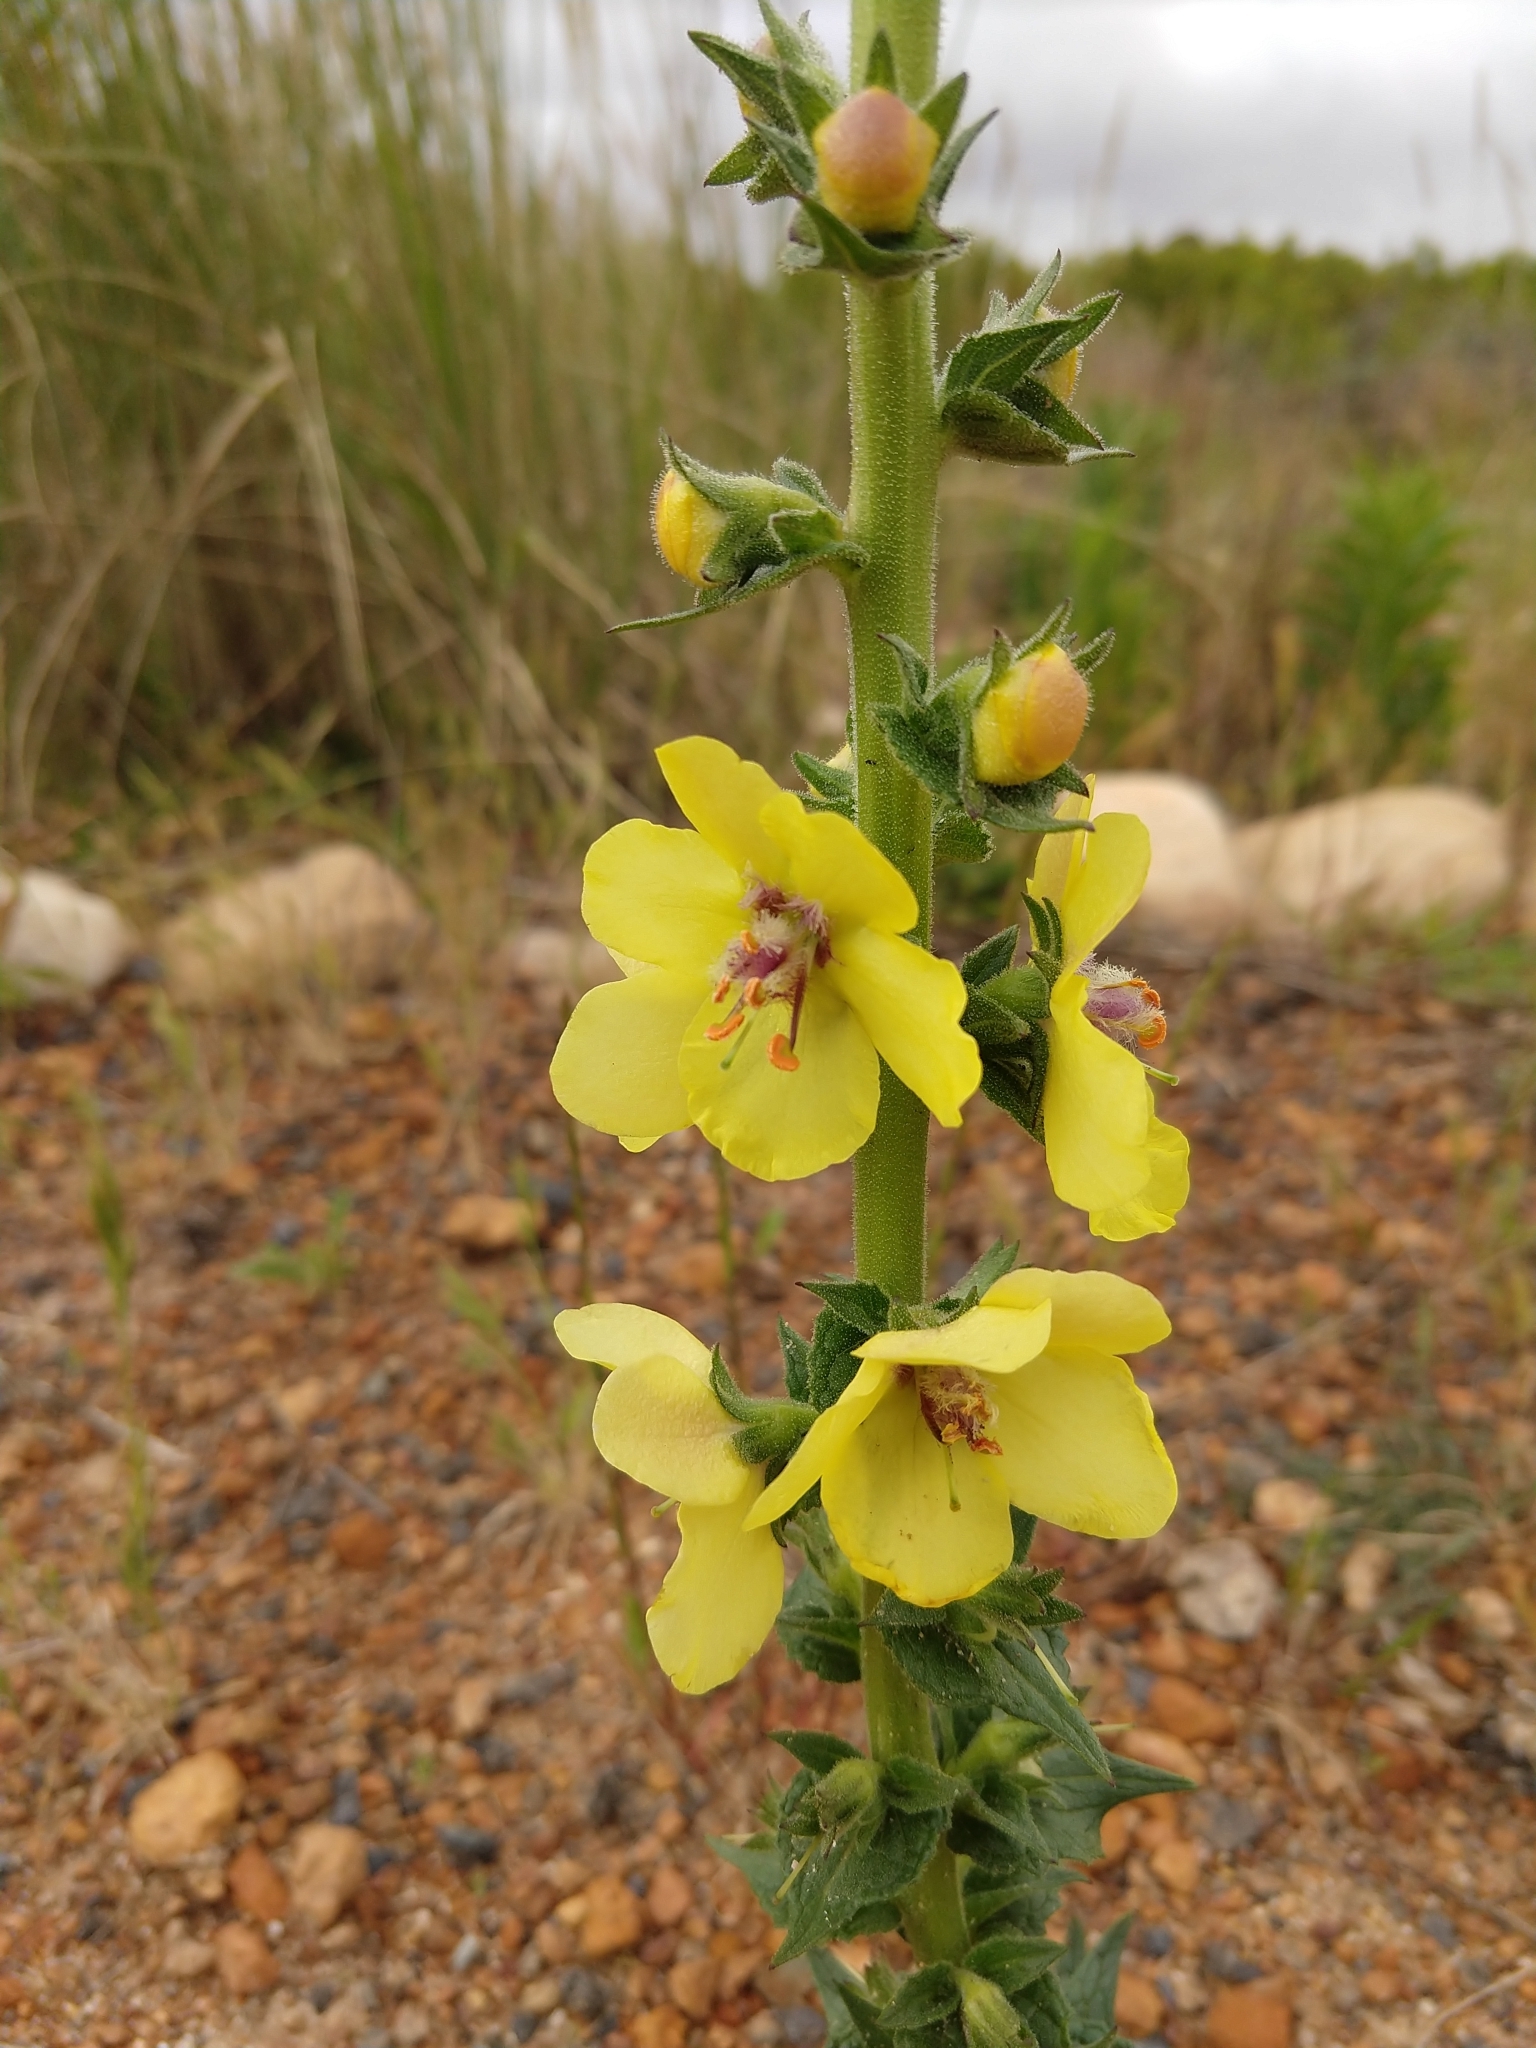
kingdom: Plantae
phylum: Tracheophyta
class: Magnoliopsida
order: Lamiales
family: Scrophulariaceae
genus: Verbascum
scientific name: Verbascum virgatum
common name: Twiggy mullein
